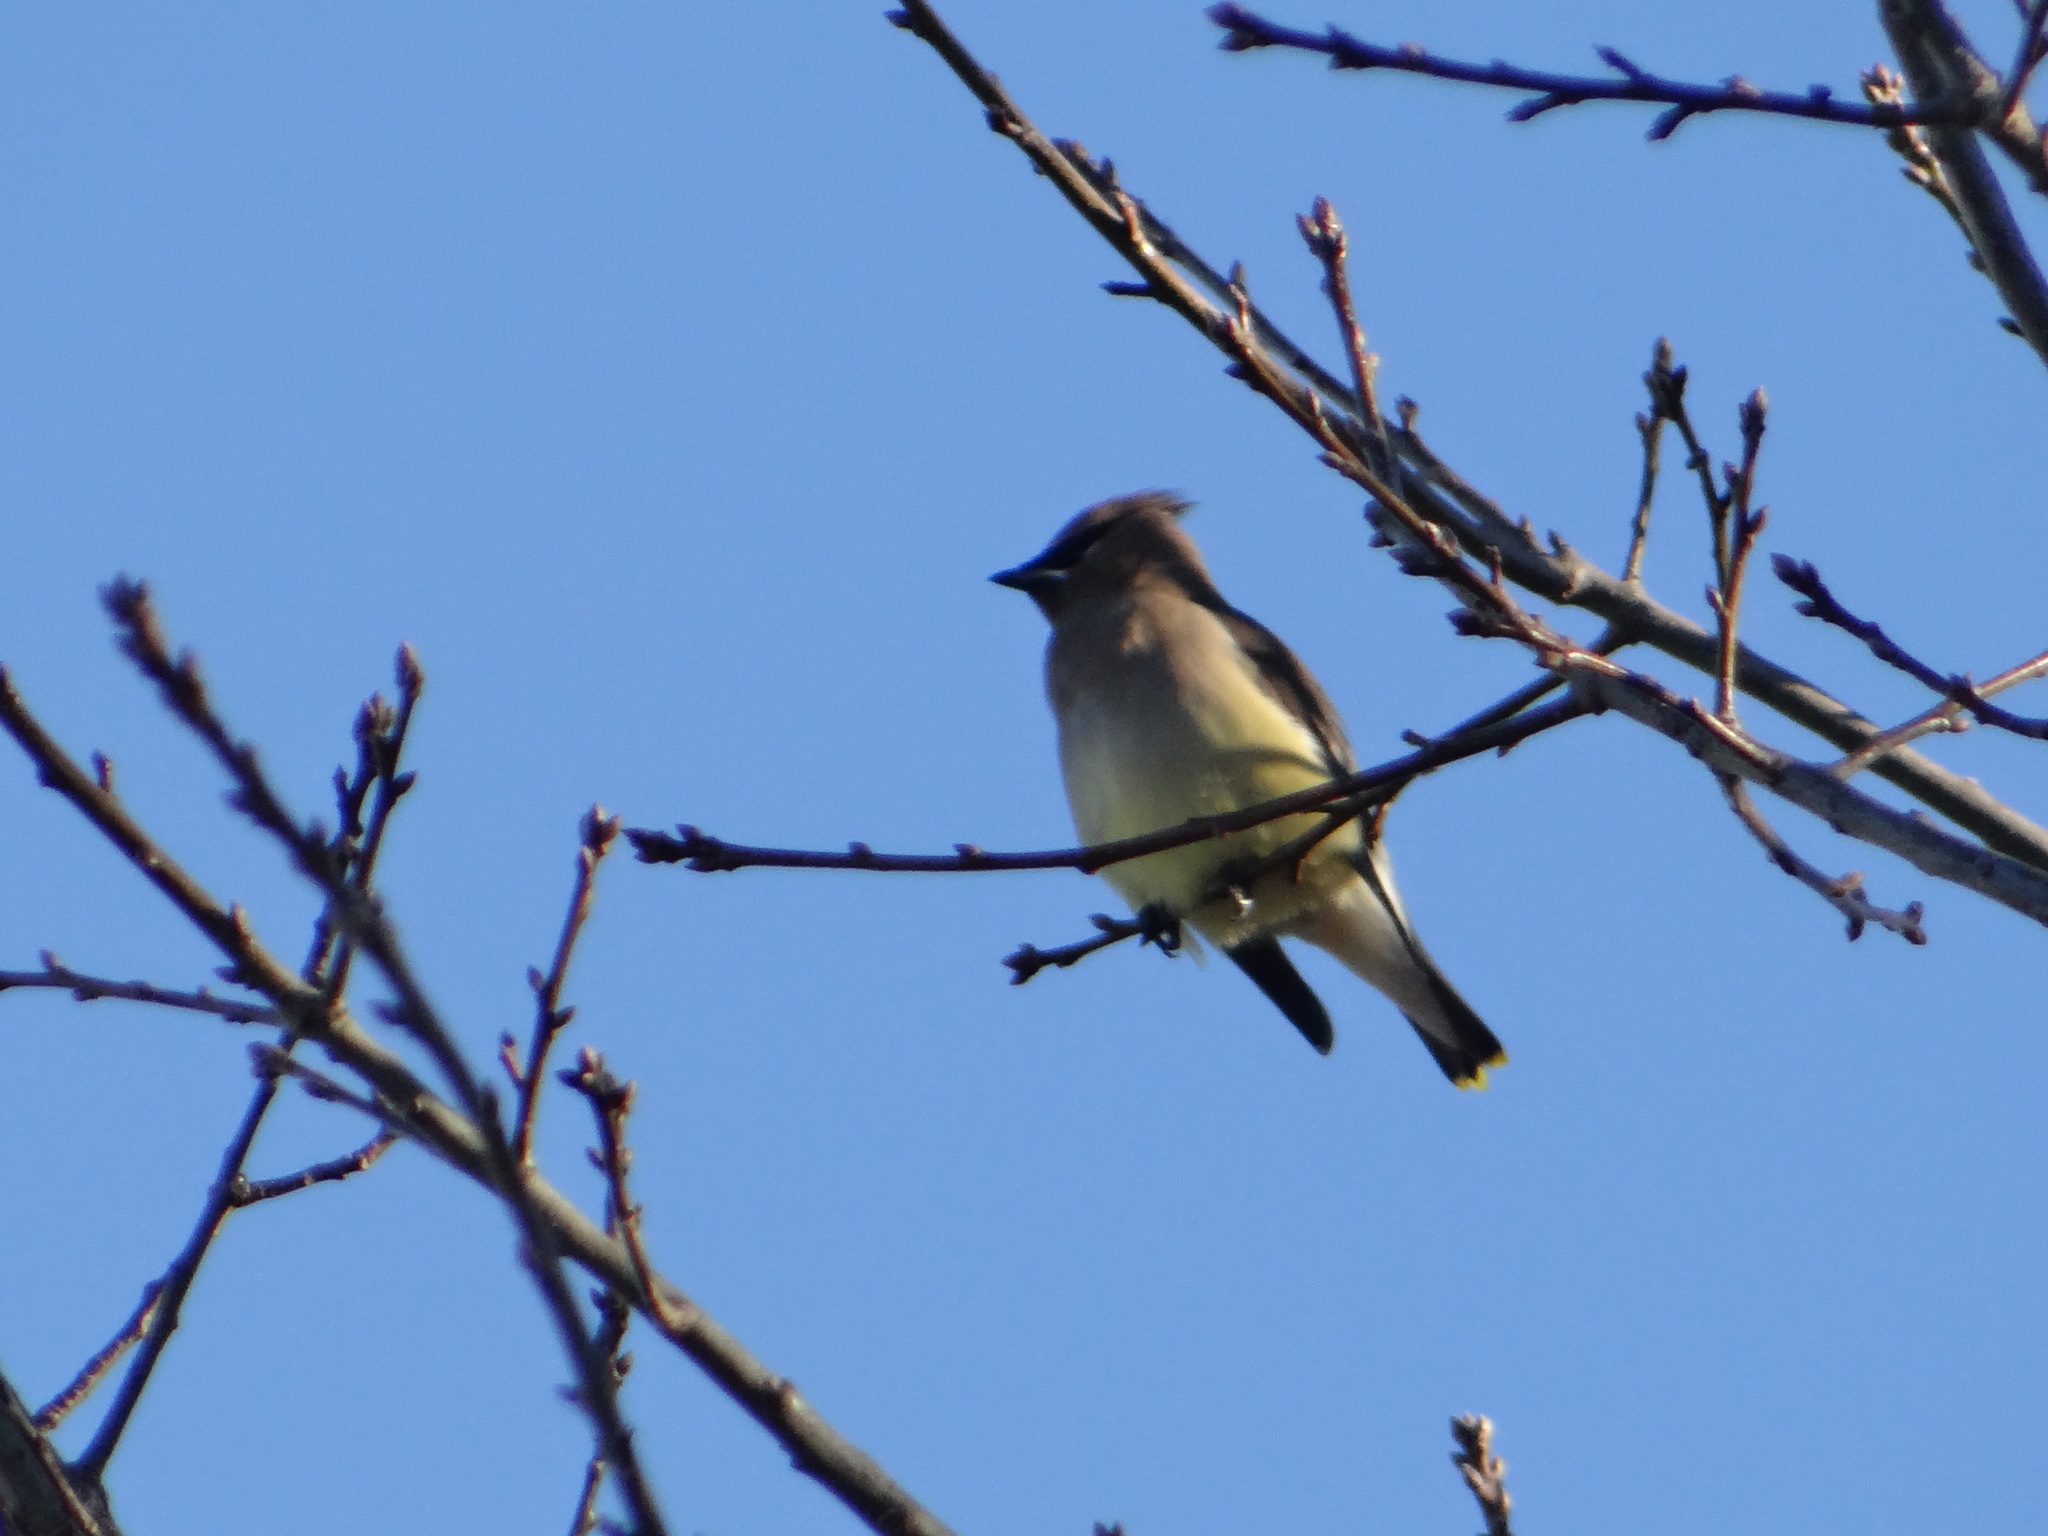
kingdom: Animalia
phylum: Chordata
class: Aves
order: Passeriformes
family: Bombycillidae
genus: Bombycilla
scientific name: Bombycilla cedrorum
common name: Cedar waxwing
